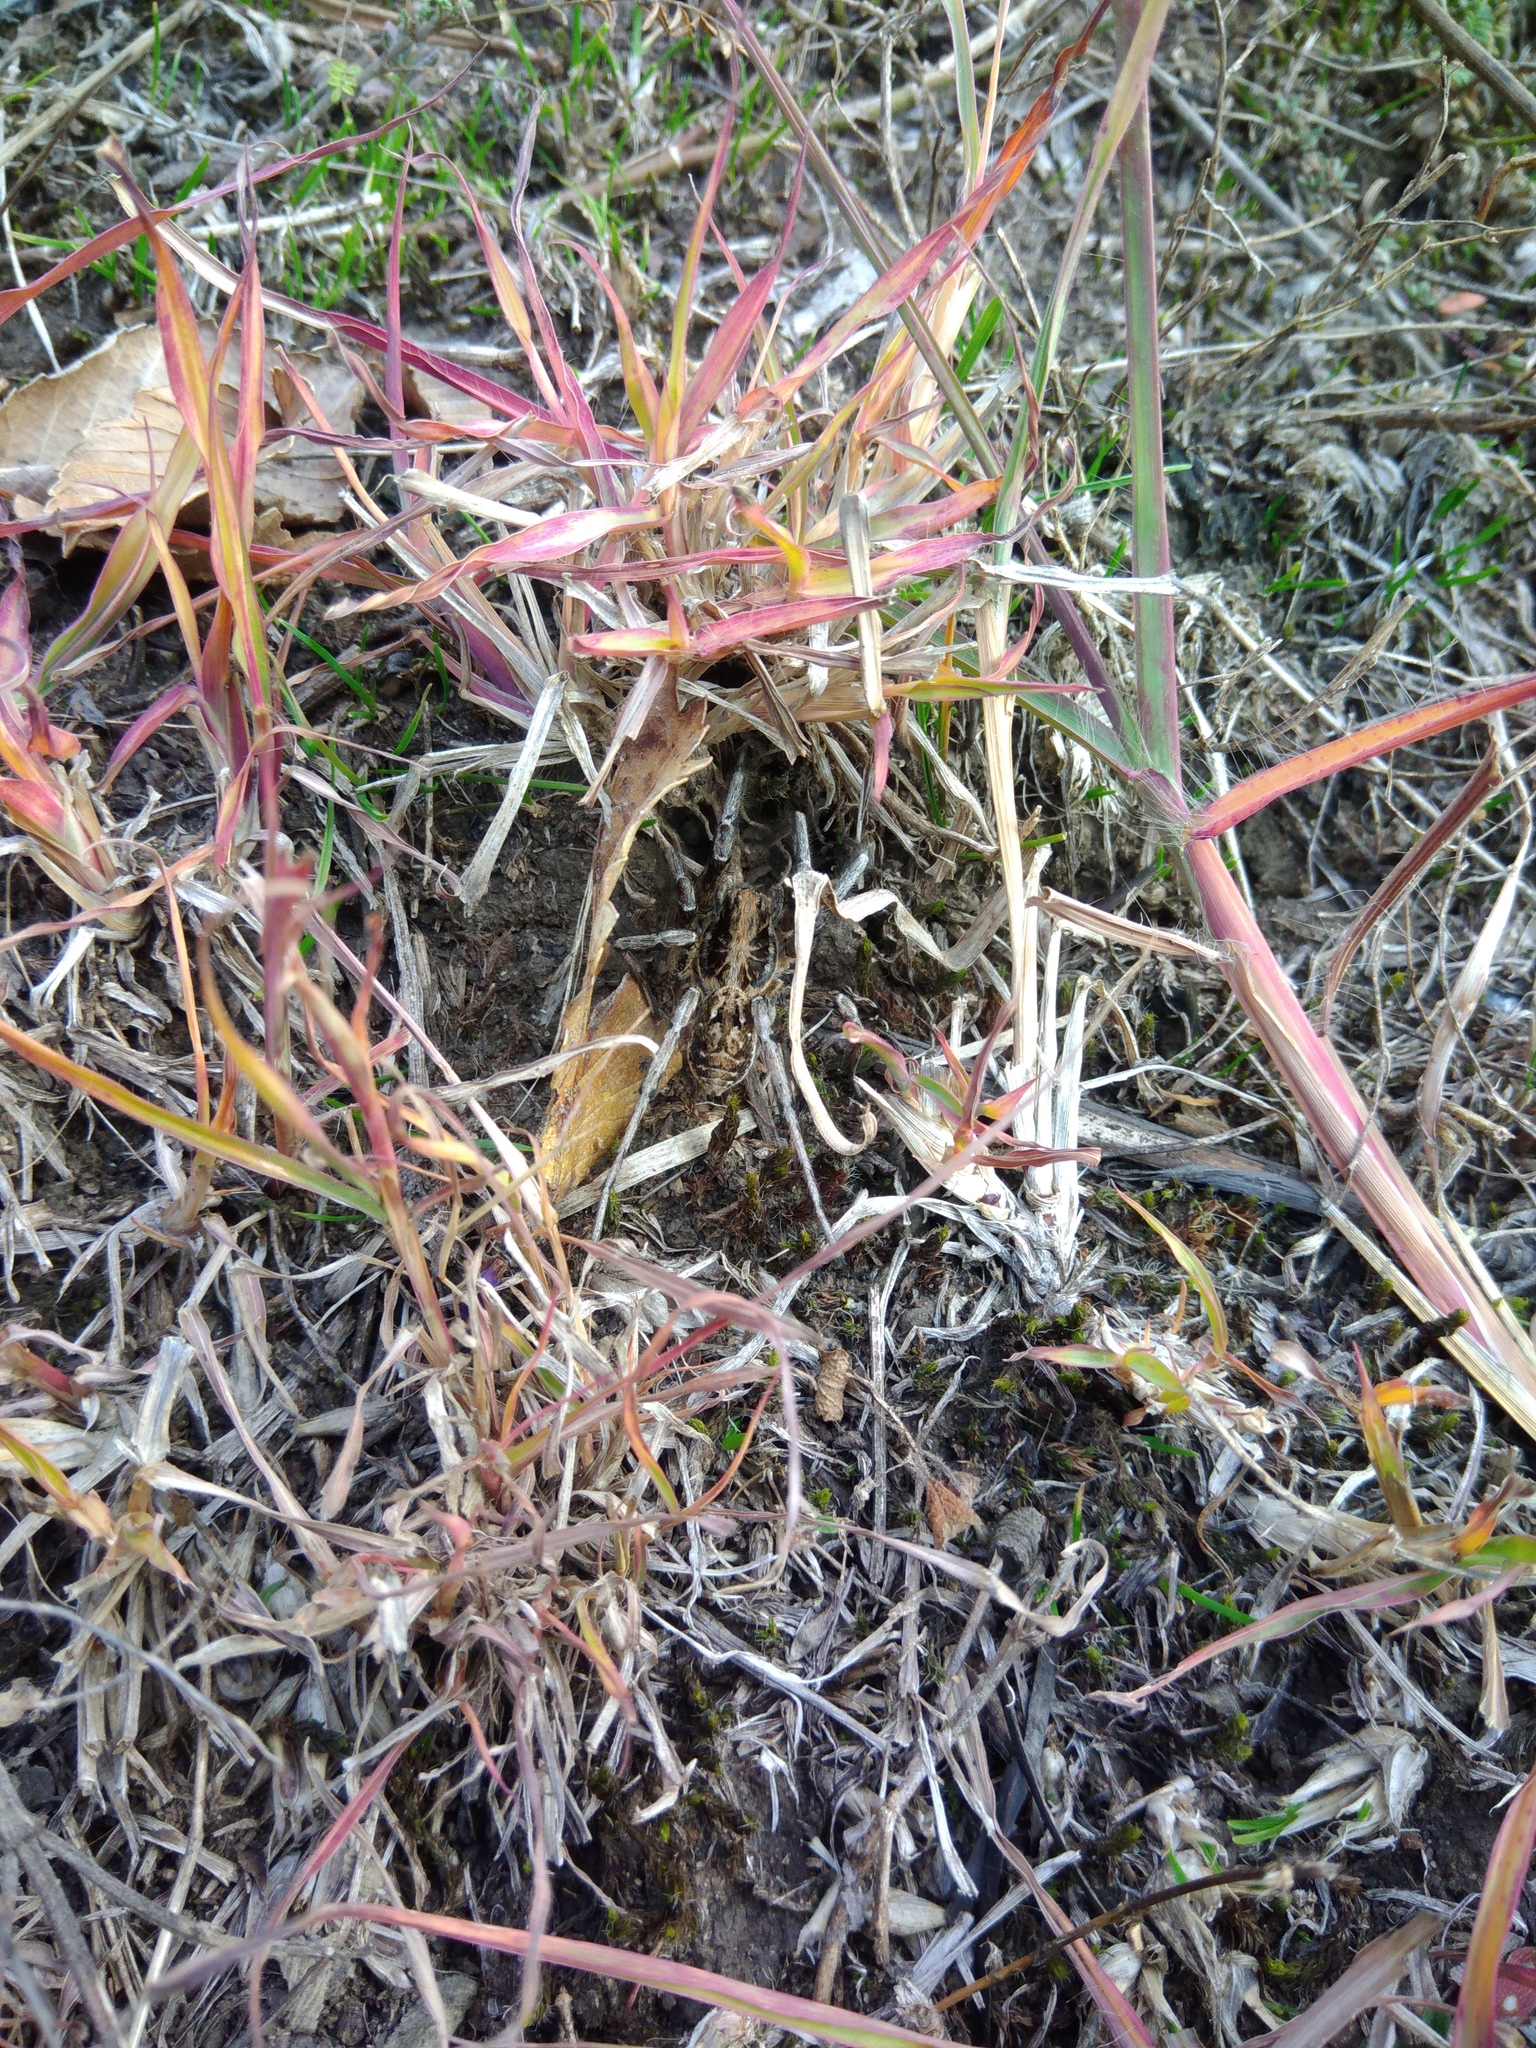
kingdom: Animalia
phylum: Arthropoda
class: Arachnida
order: Araneae
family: Lycosidae
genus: Geolycosa
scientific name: Geolycosa vultuosa
